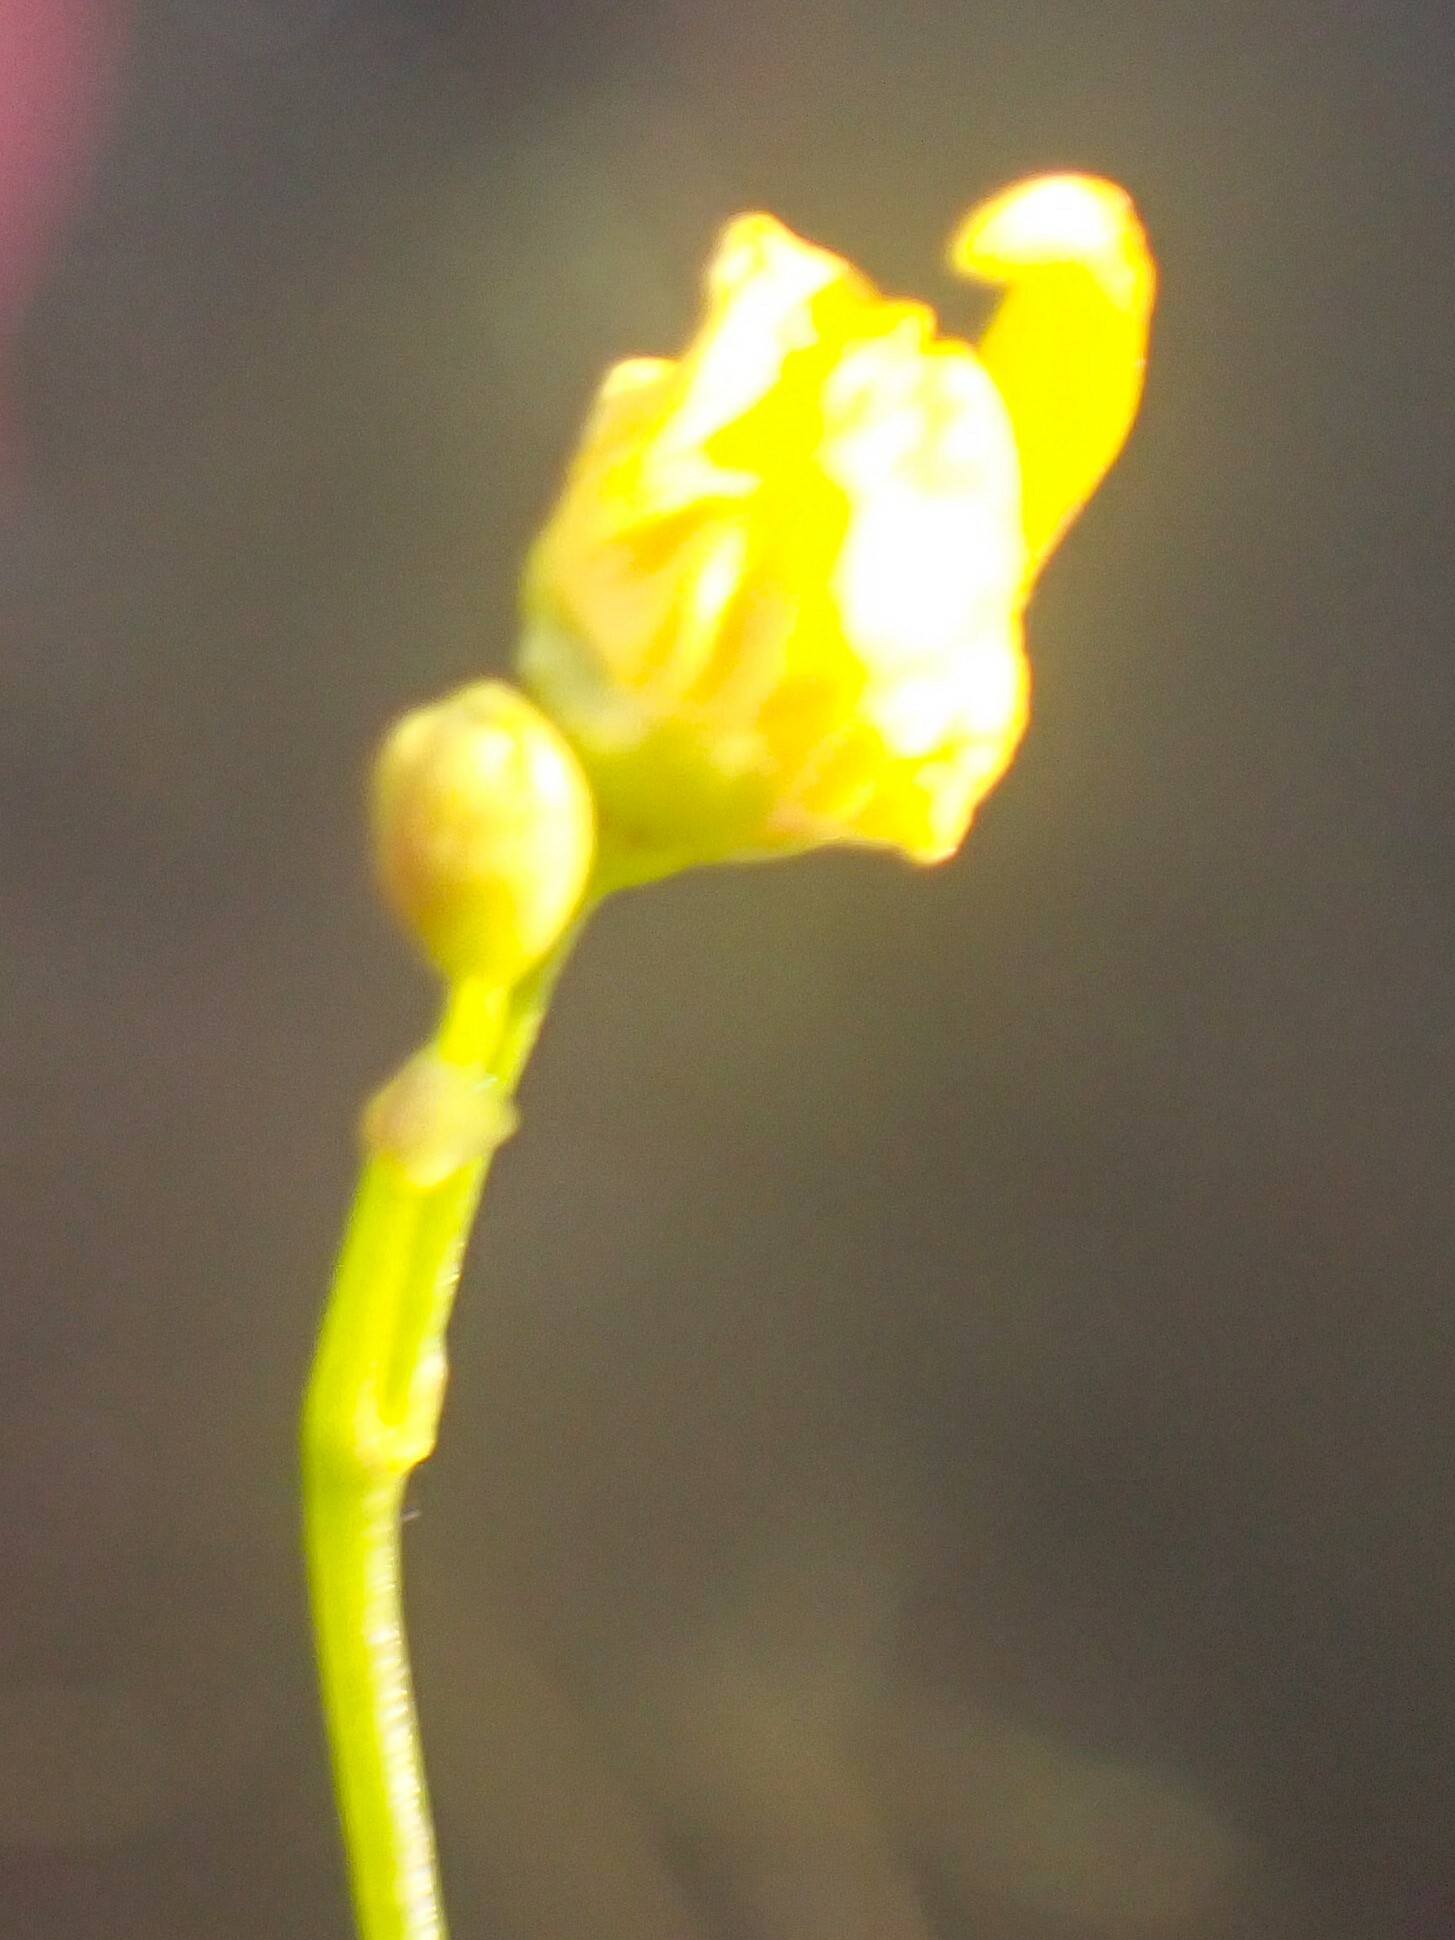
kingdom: Plantae
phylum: Tracheophyta
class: Magnoliopsida
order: Lamiales
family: Lentibulariaceae
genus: Utricularia
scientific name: Utricularia gibba
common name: Humped bladderwort
